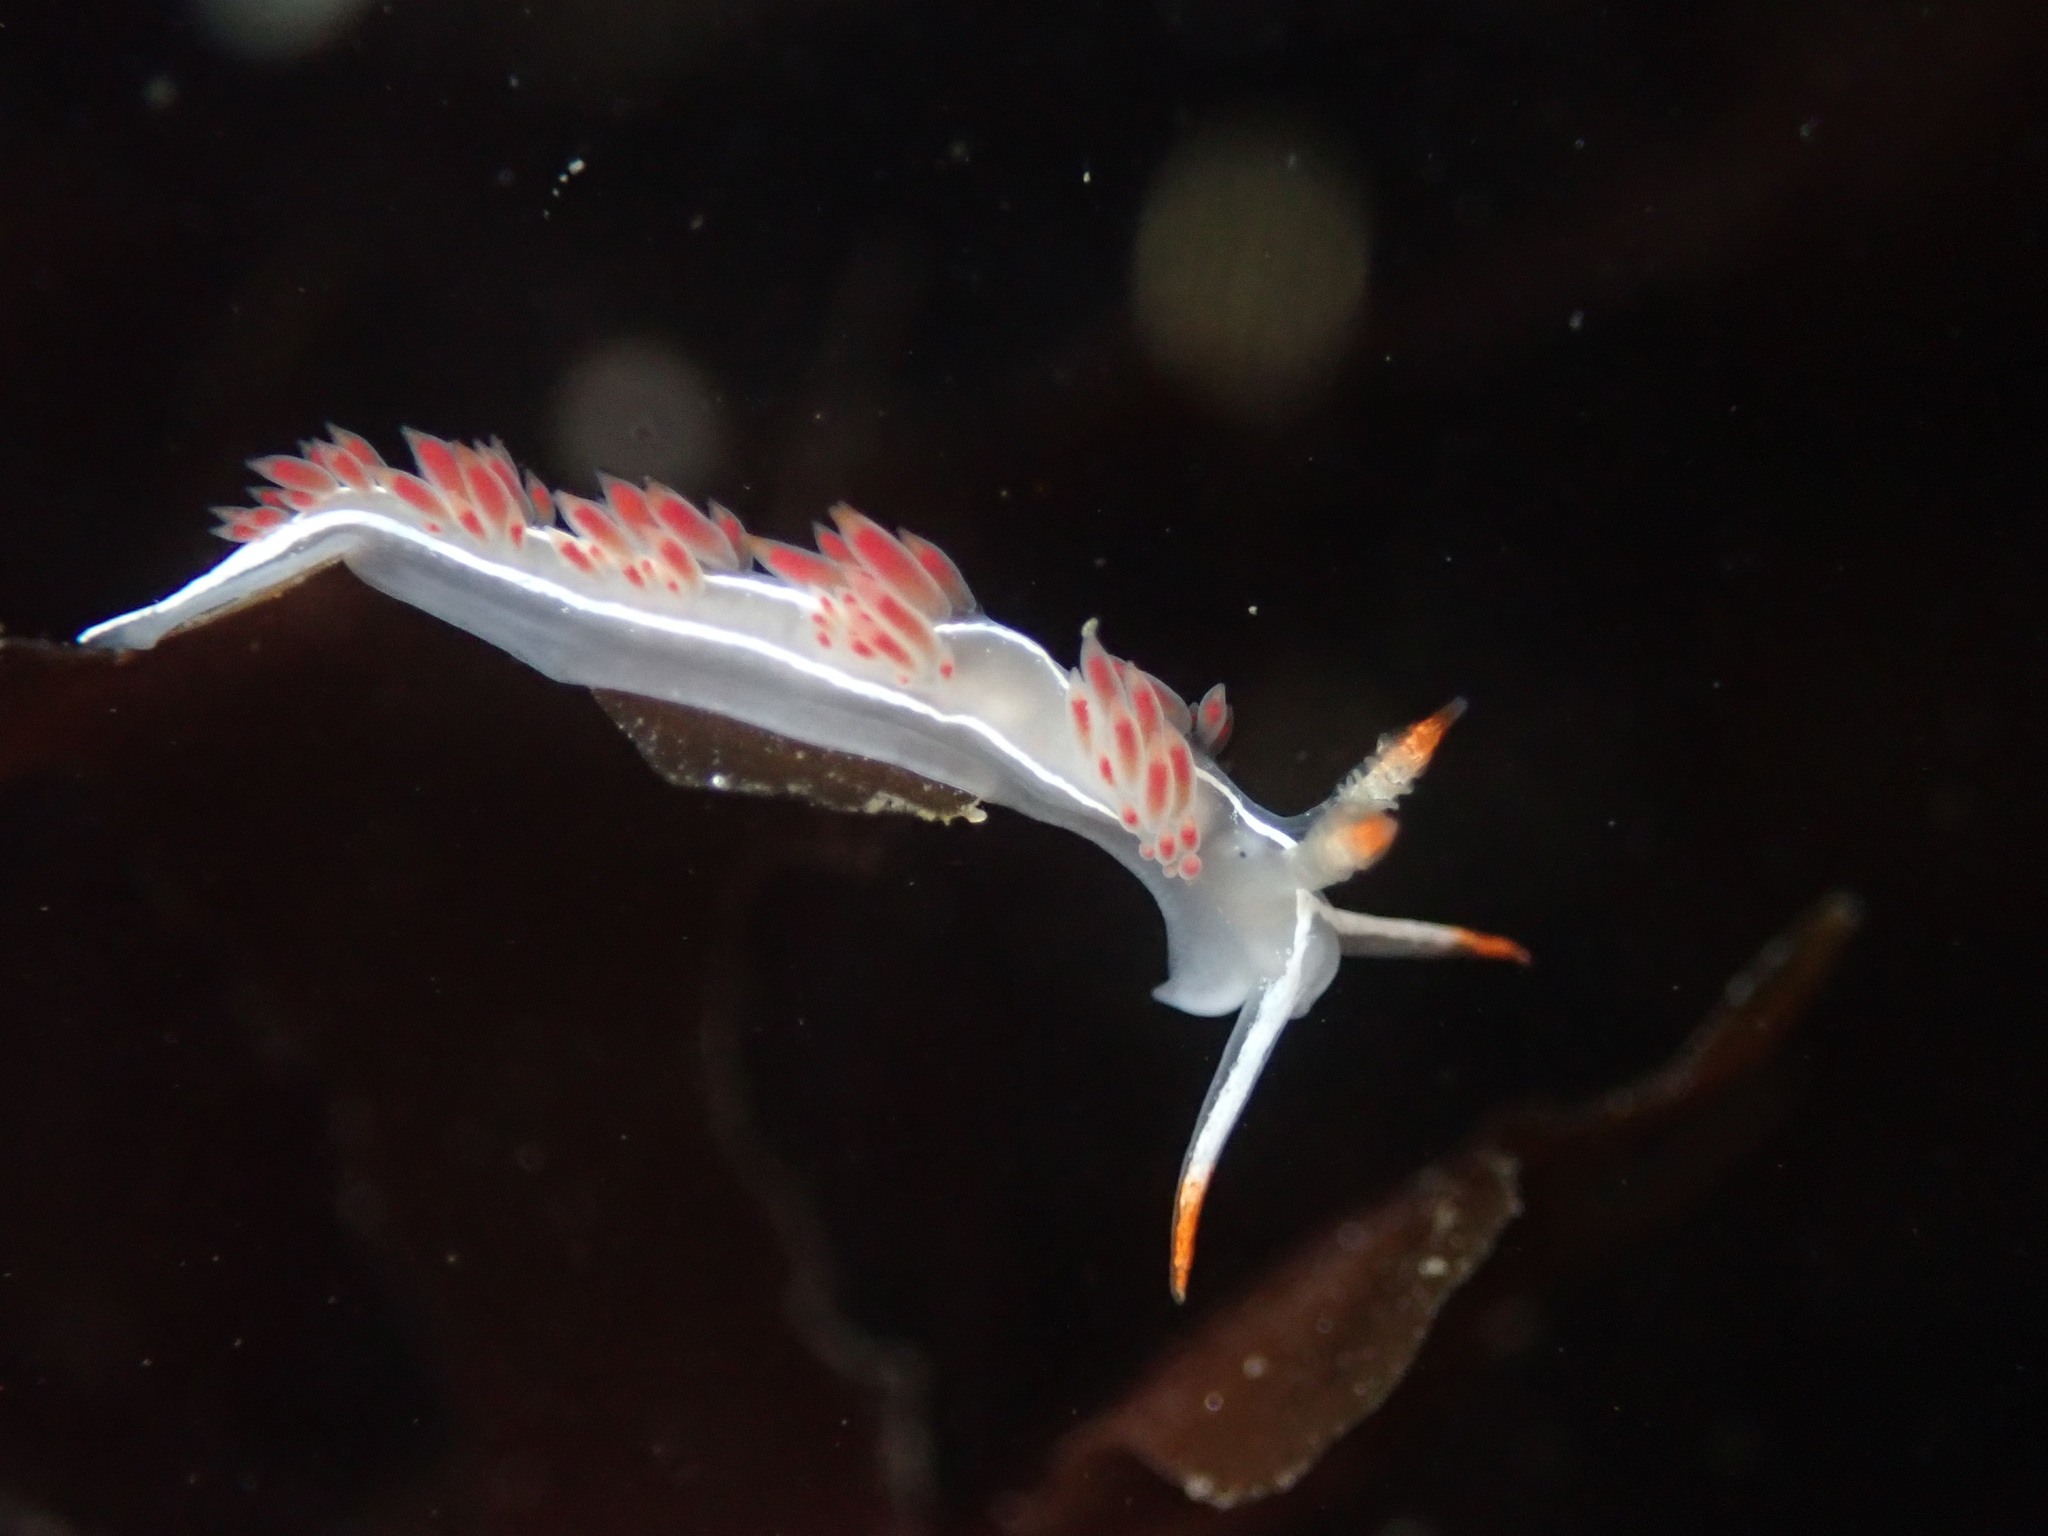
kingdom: Animalia
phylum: Mollusca
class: Gastropoda
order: Nudibranchia
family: Coryphellidae
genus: Coryphella
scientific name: Coryphella trilineata
